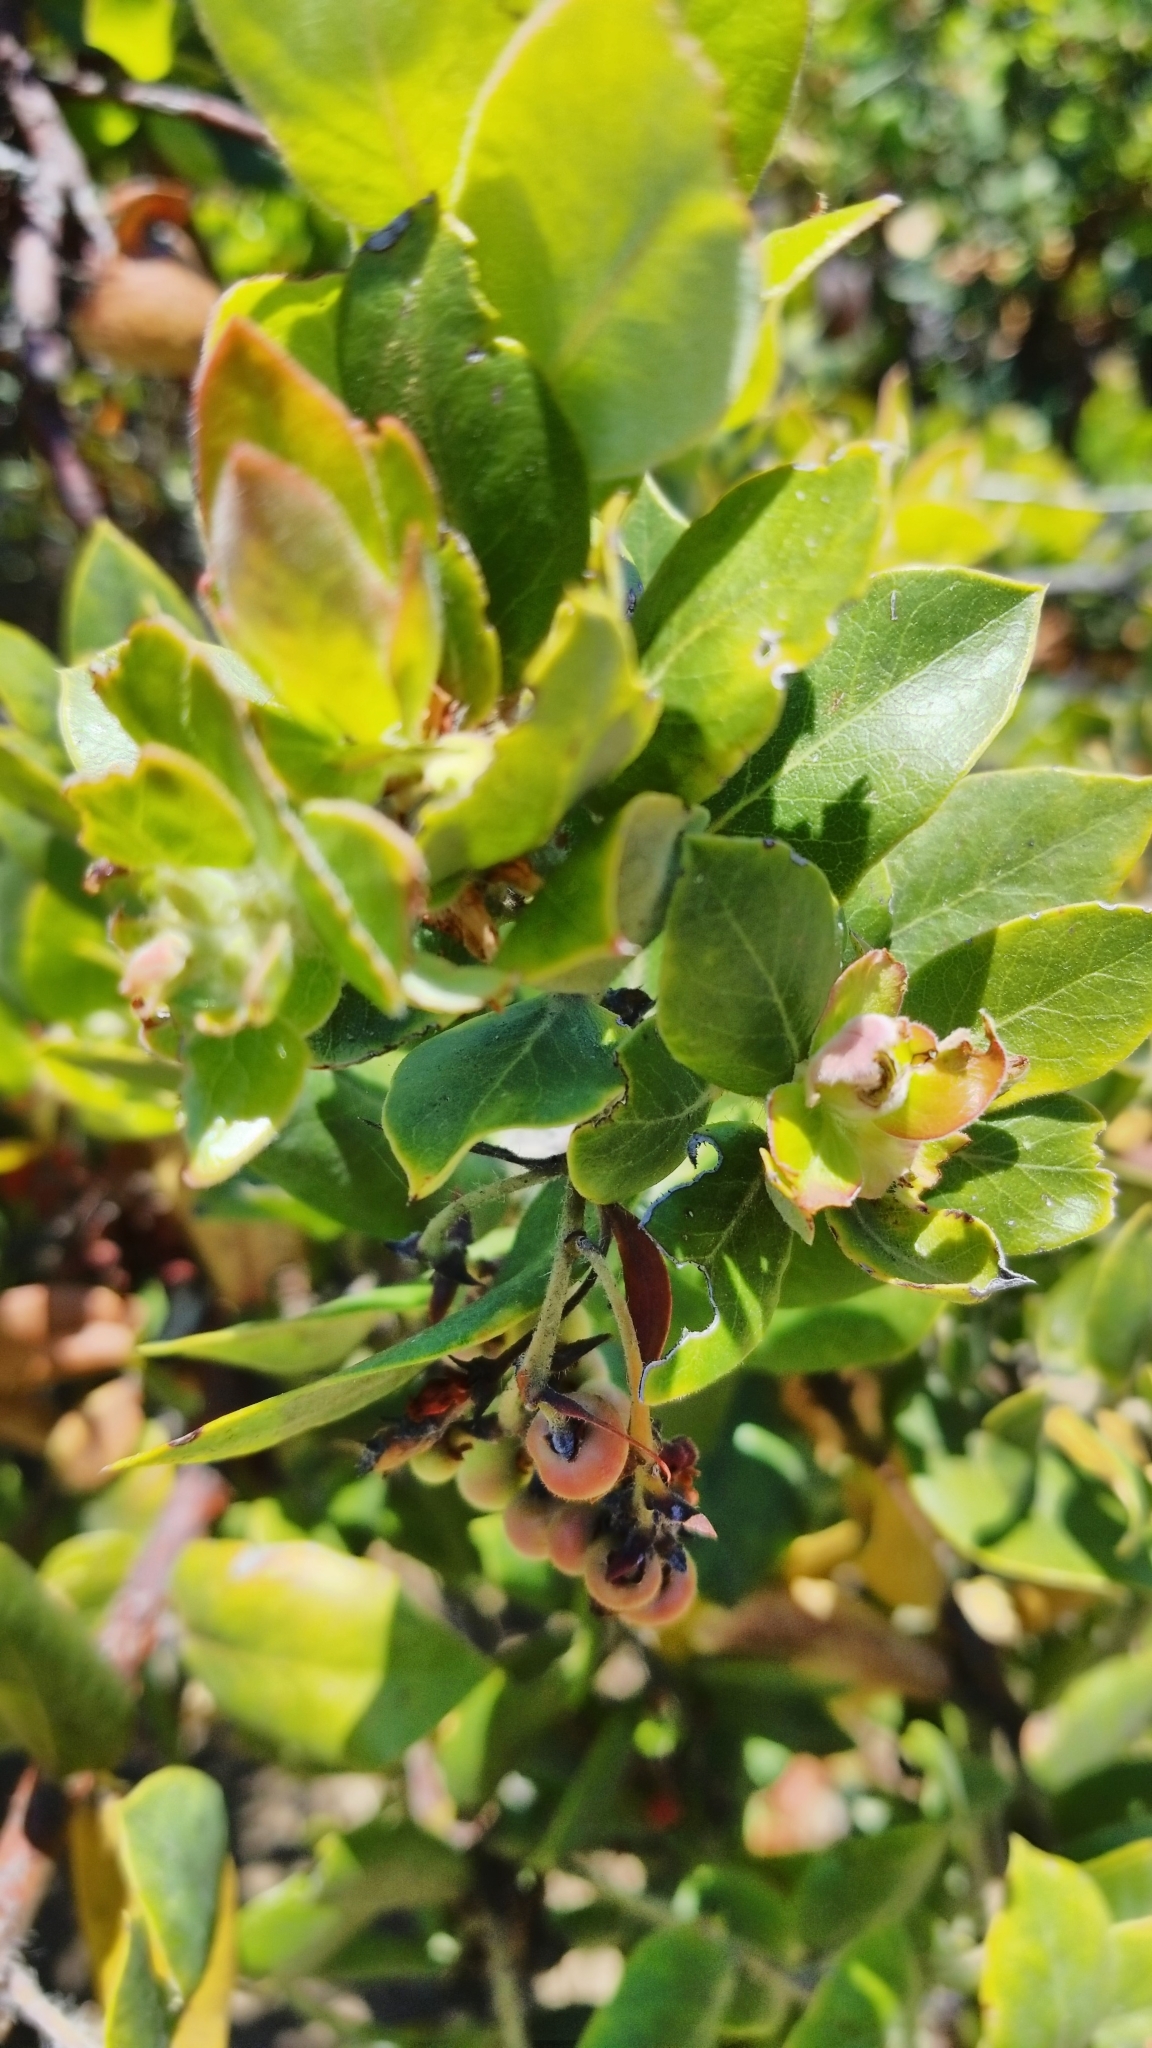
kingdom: Plantae
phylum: Tracheophyta
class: Magnoliopsida
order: Ericales
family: Ericaceae
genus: Arctostaphylos
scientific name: Arctostaphylos crustacea
